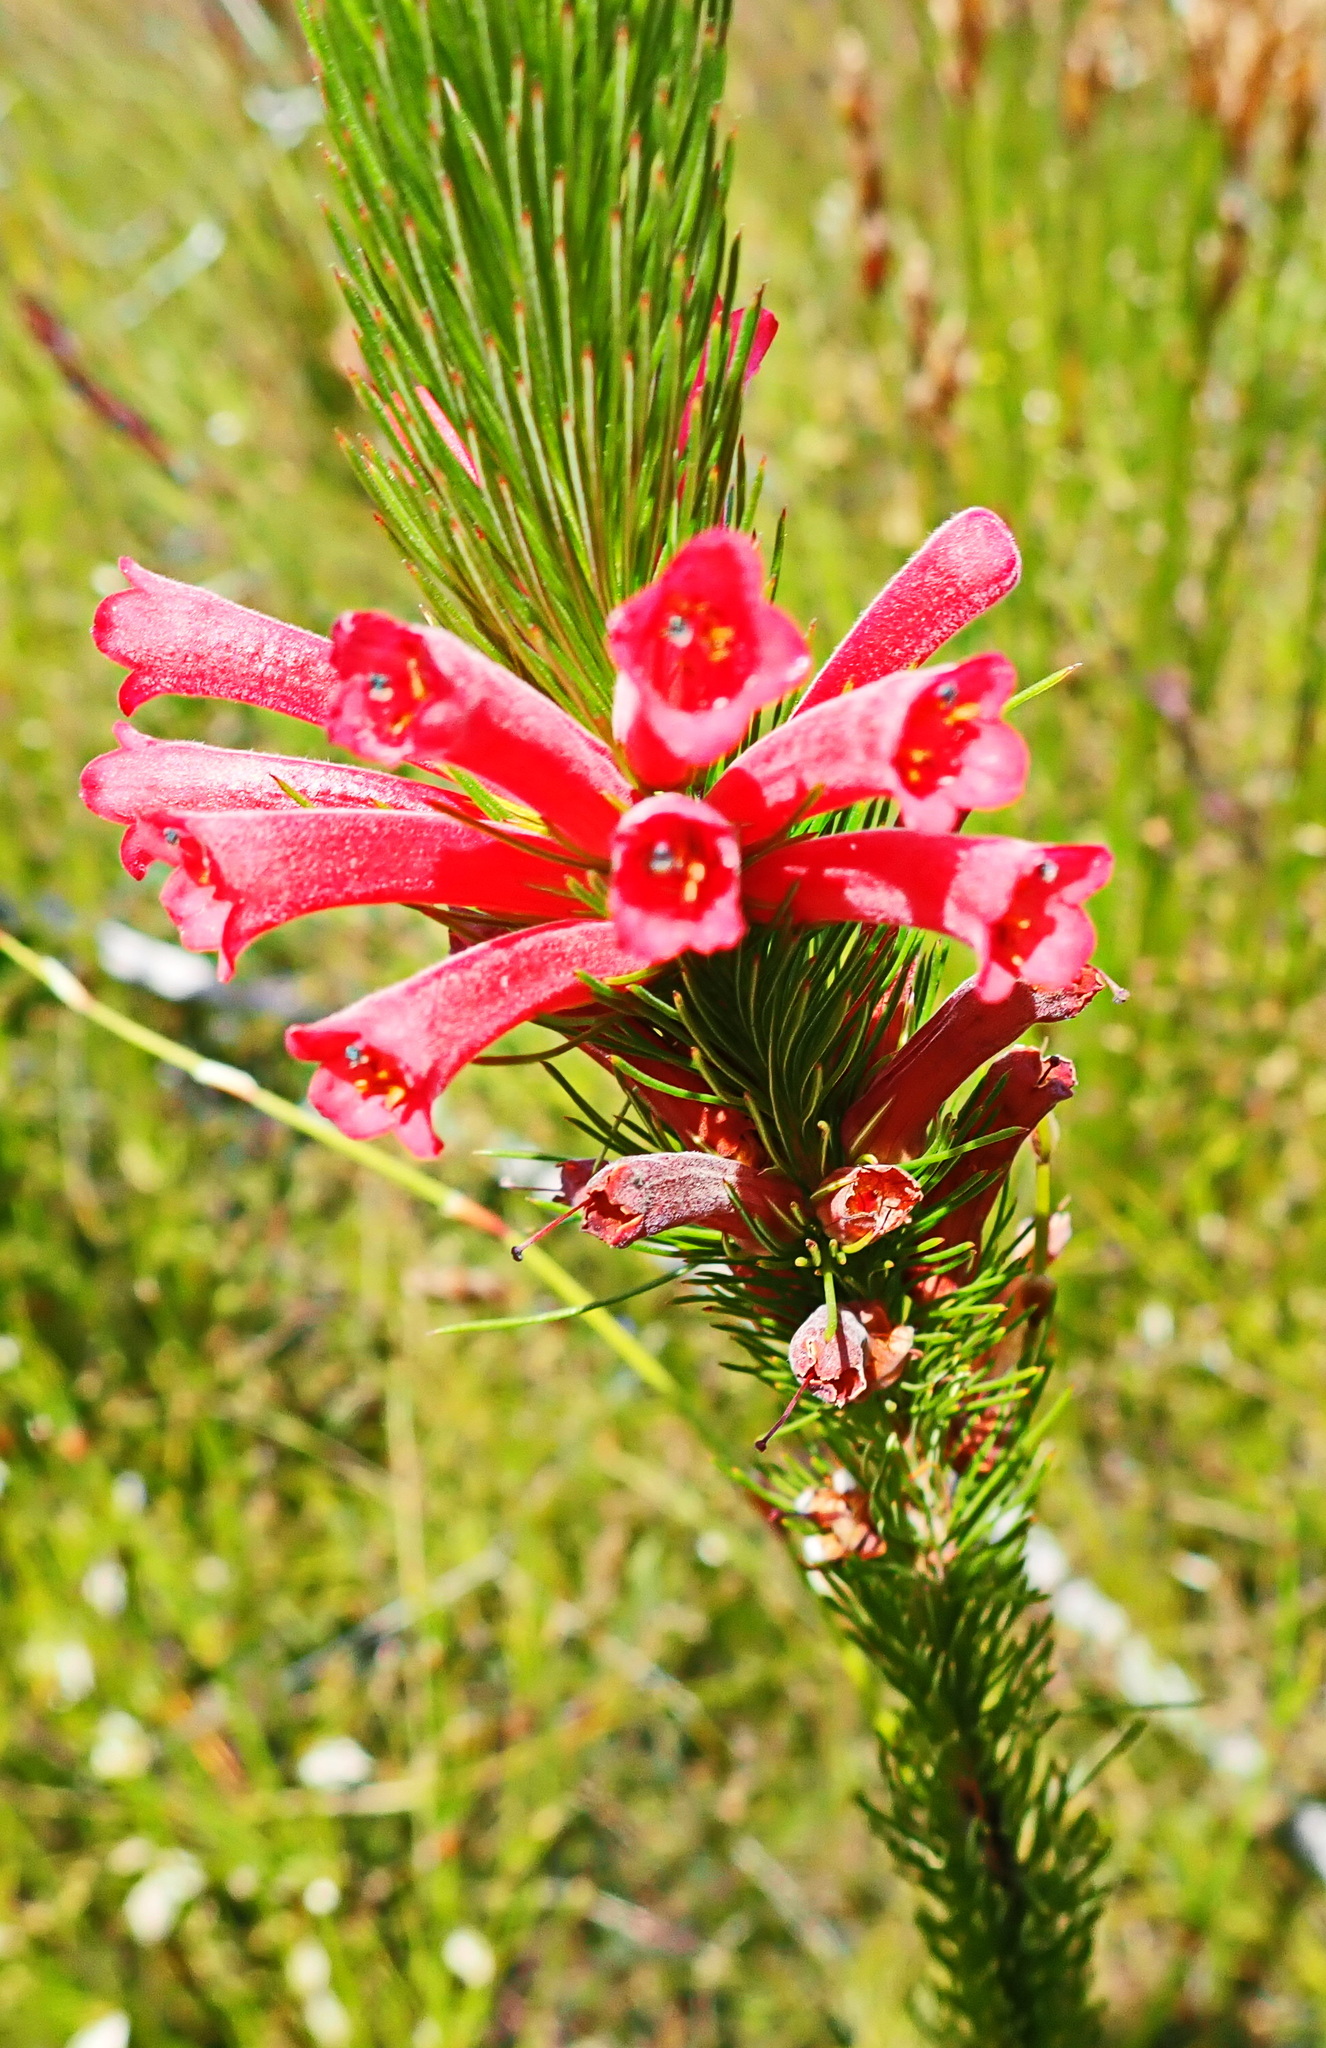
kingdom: Plantae
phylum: Tracheophyta
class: Magnoliopsida
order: Ericales
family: Ericaceae
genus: Erica
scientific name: Erica vestita
